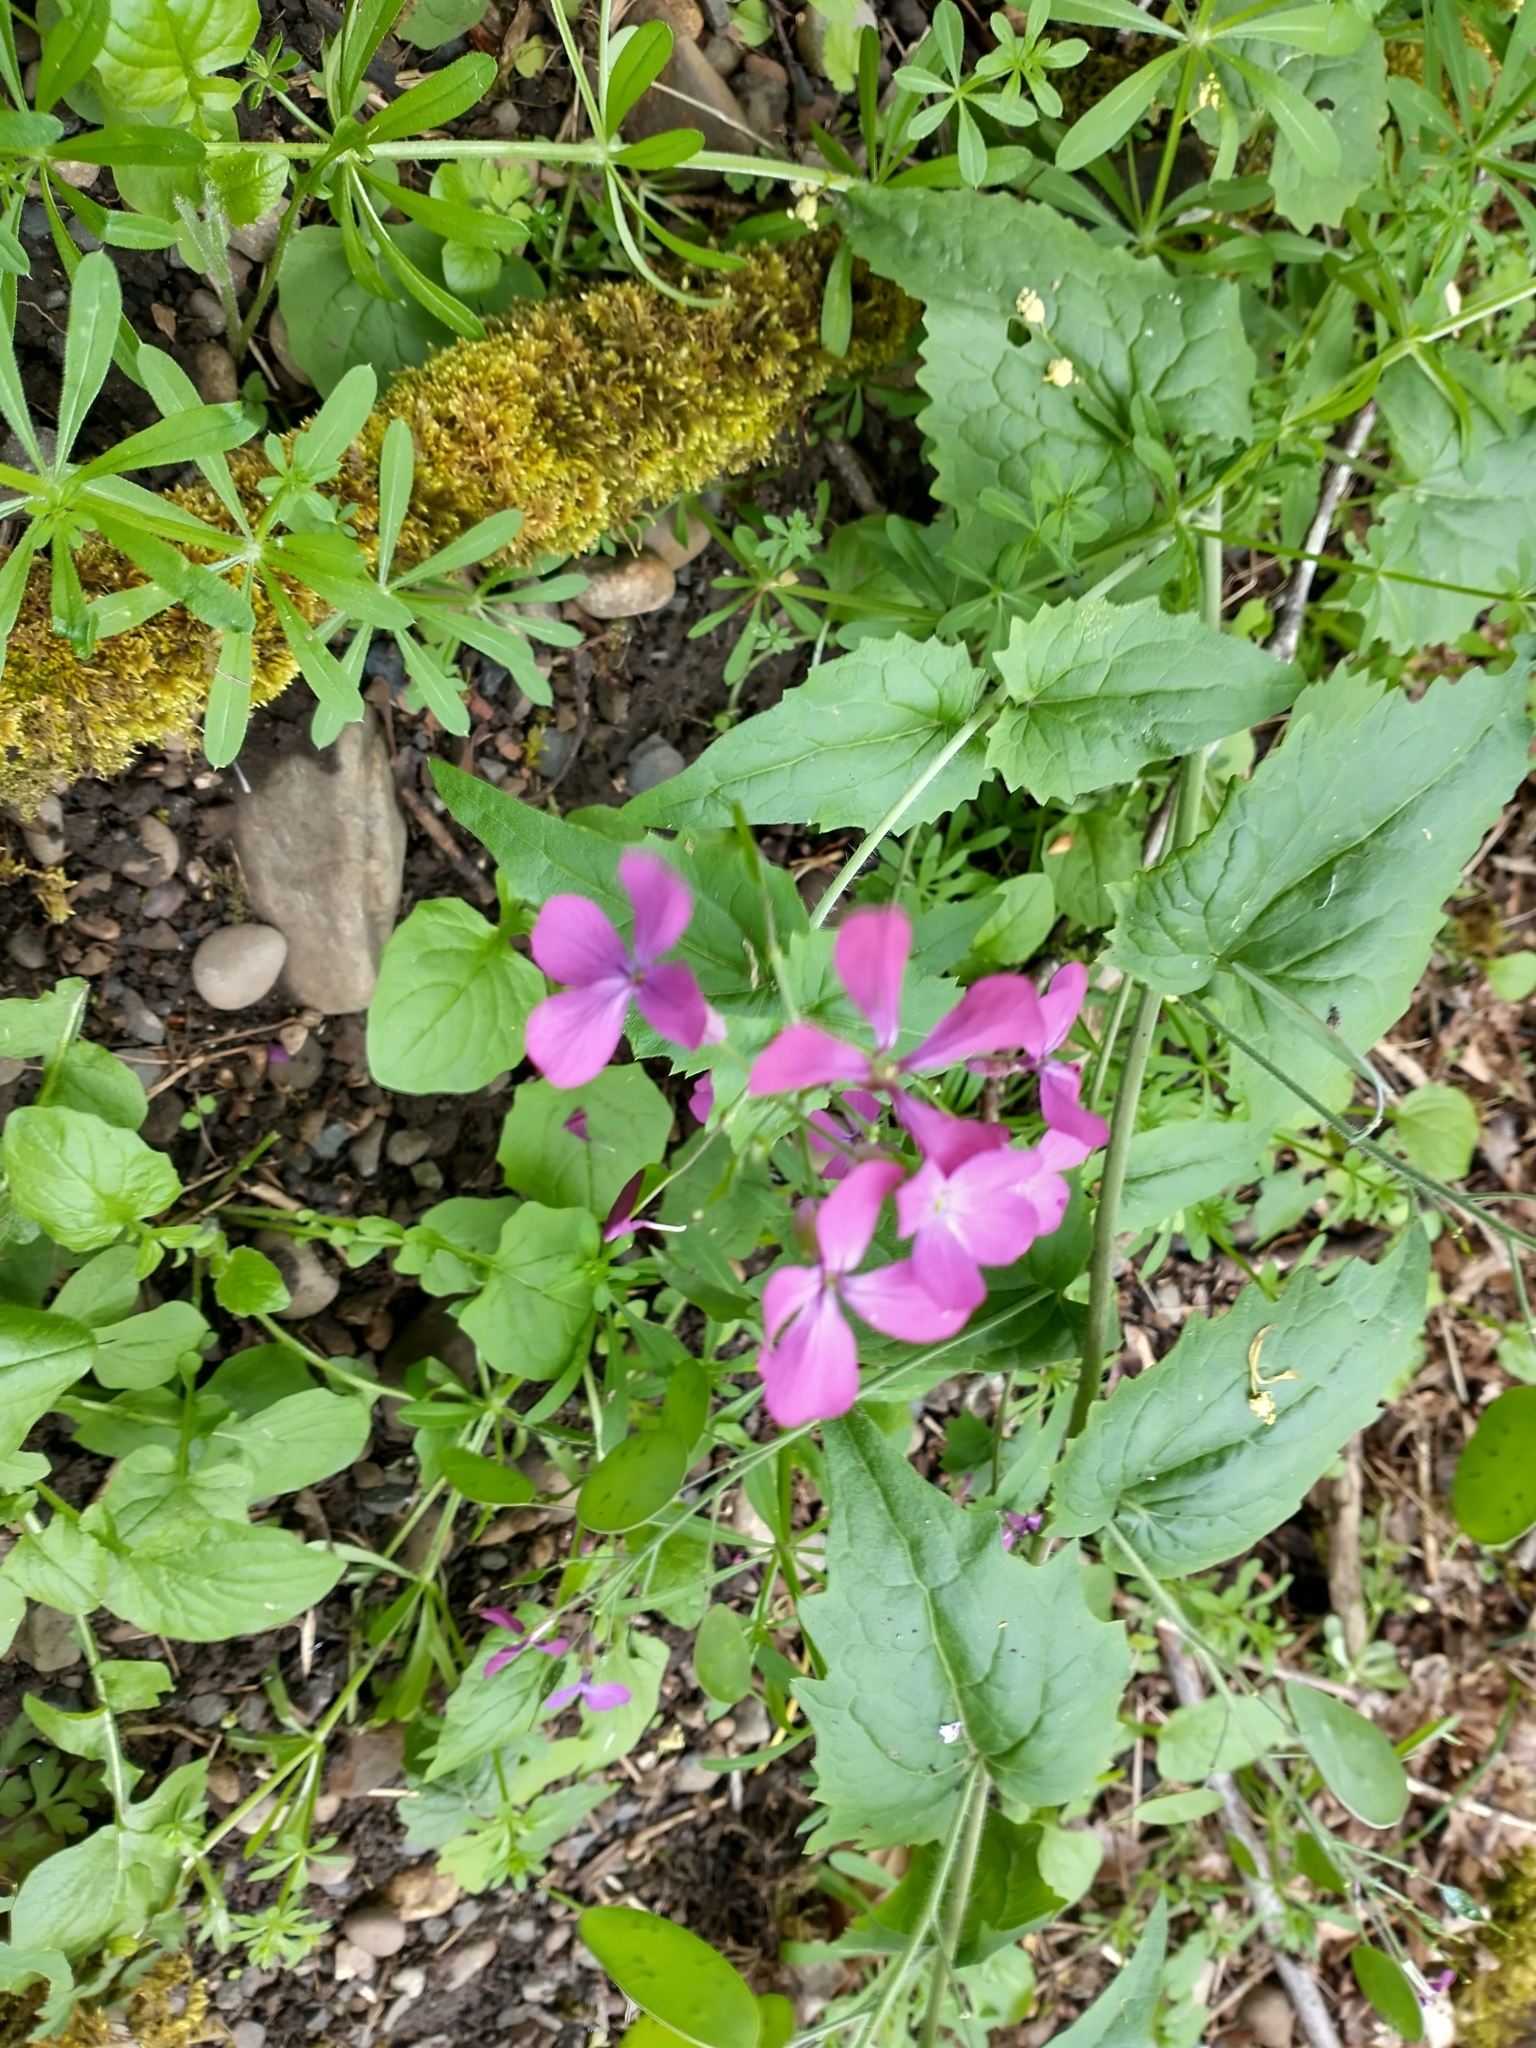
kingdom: Plantae
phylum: Tracheophyta
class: Magnoliopsida
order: Brassicales
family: Brassicaceae
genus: Lunaria
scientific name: Lunaria annua
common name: Honesty
